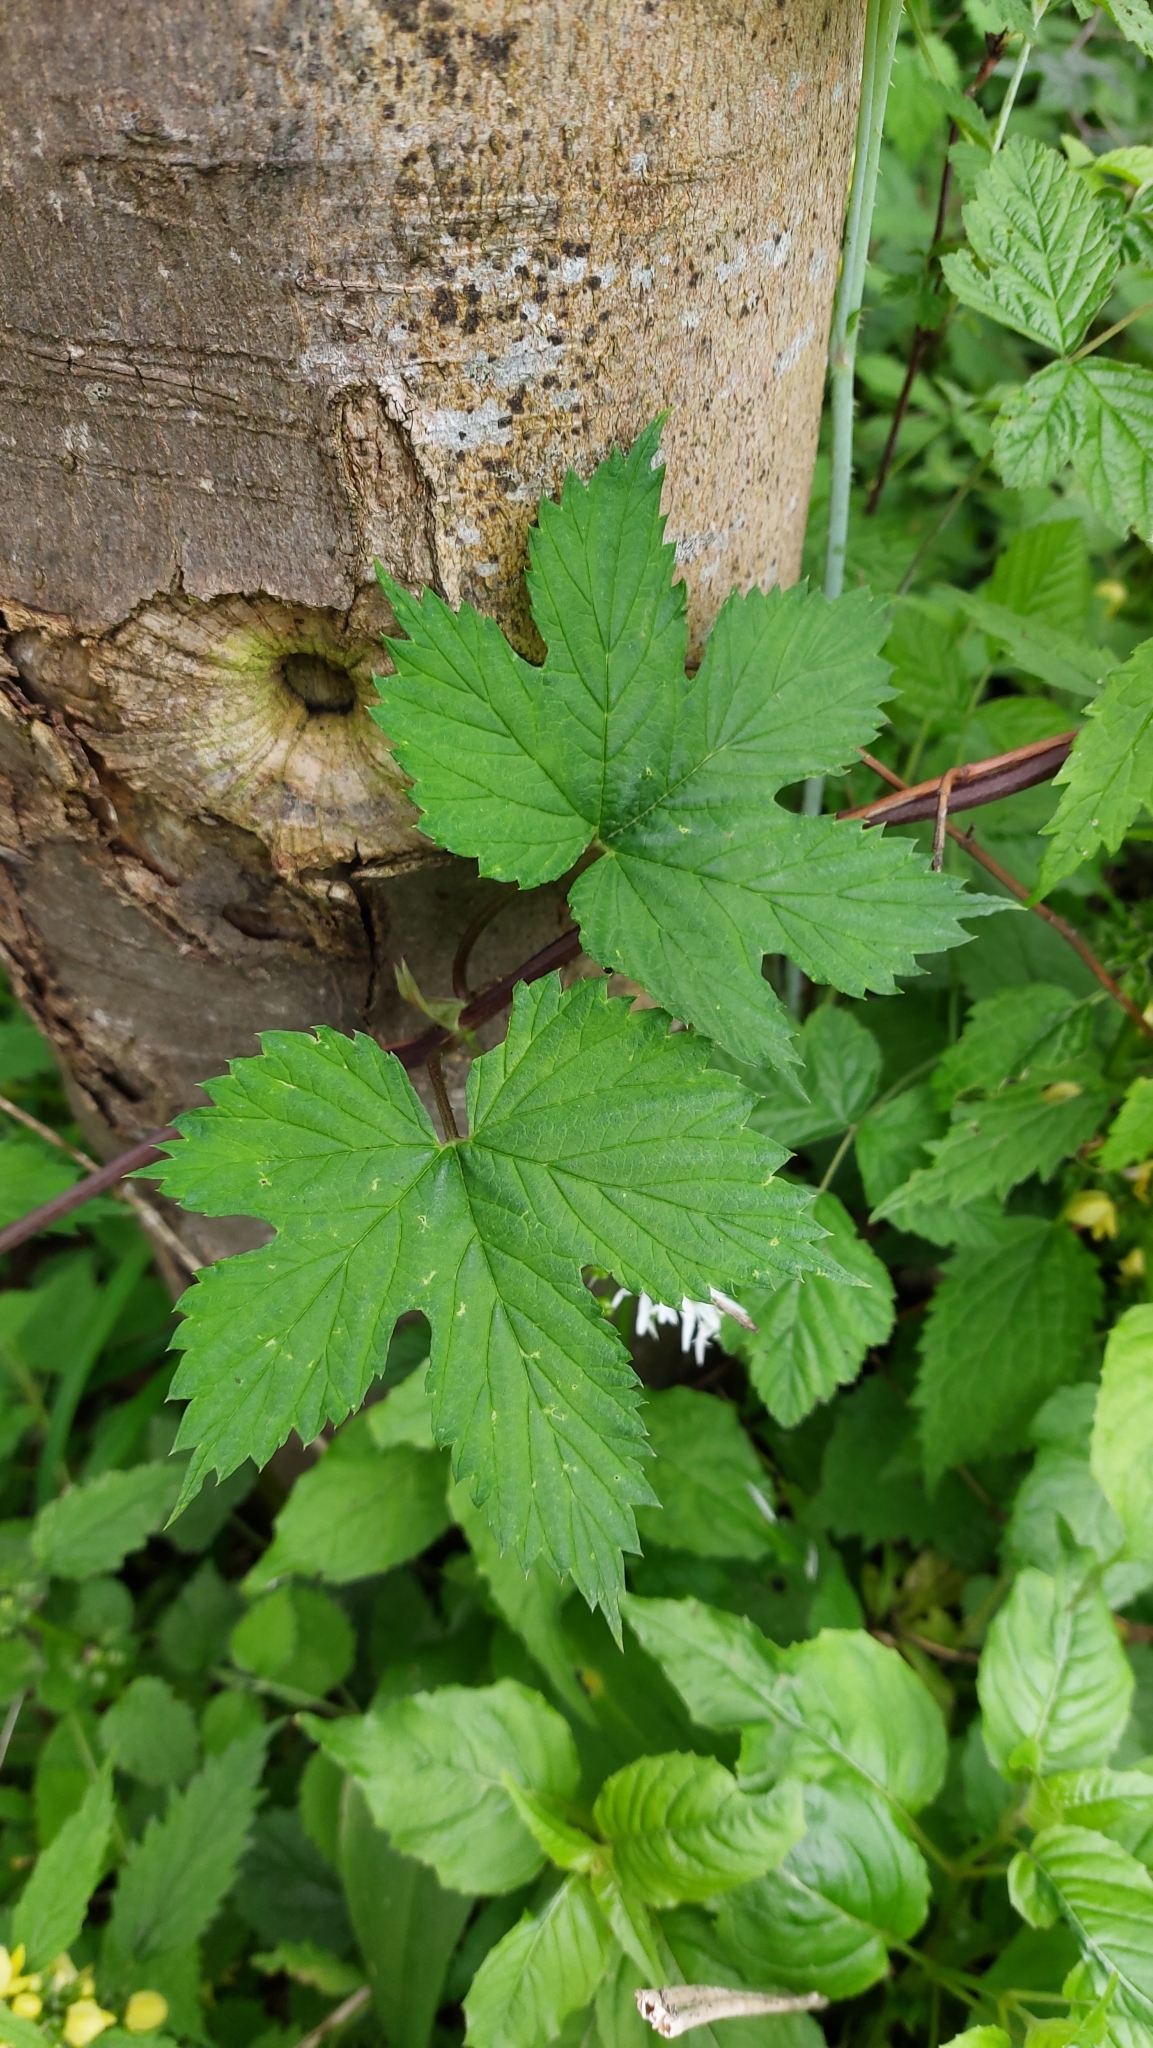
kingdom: Plantae
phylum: Tracheophyta
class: Magnoliopsida
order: Rosales
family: Cannabaceae
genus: Humulus
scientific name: Humulus lupulus
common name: Hop
